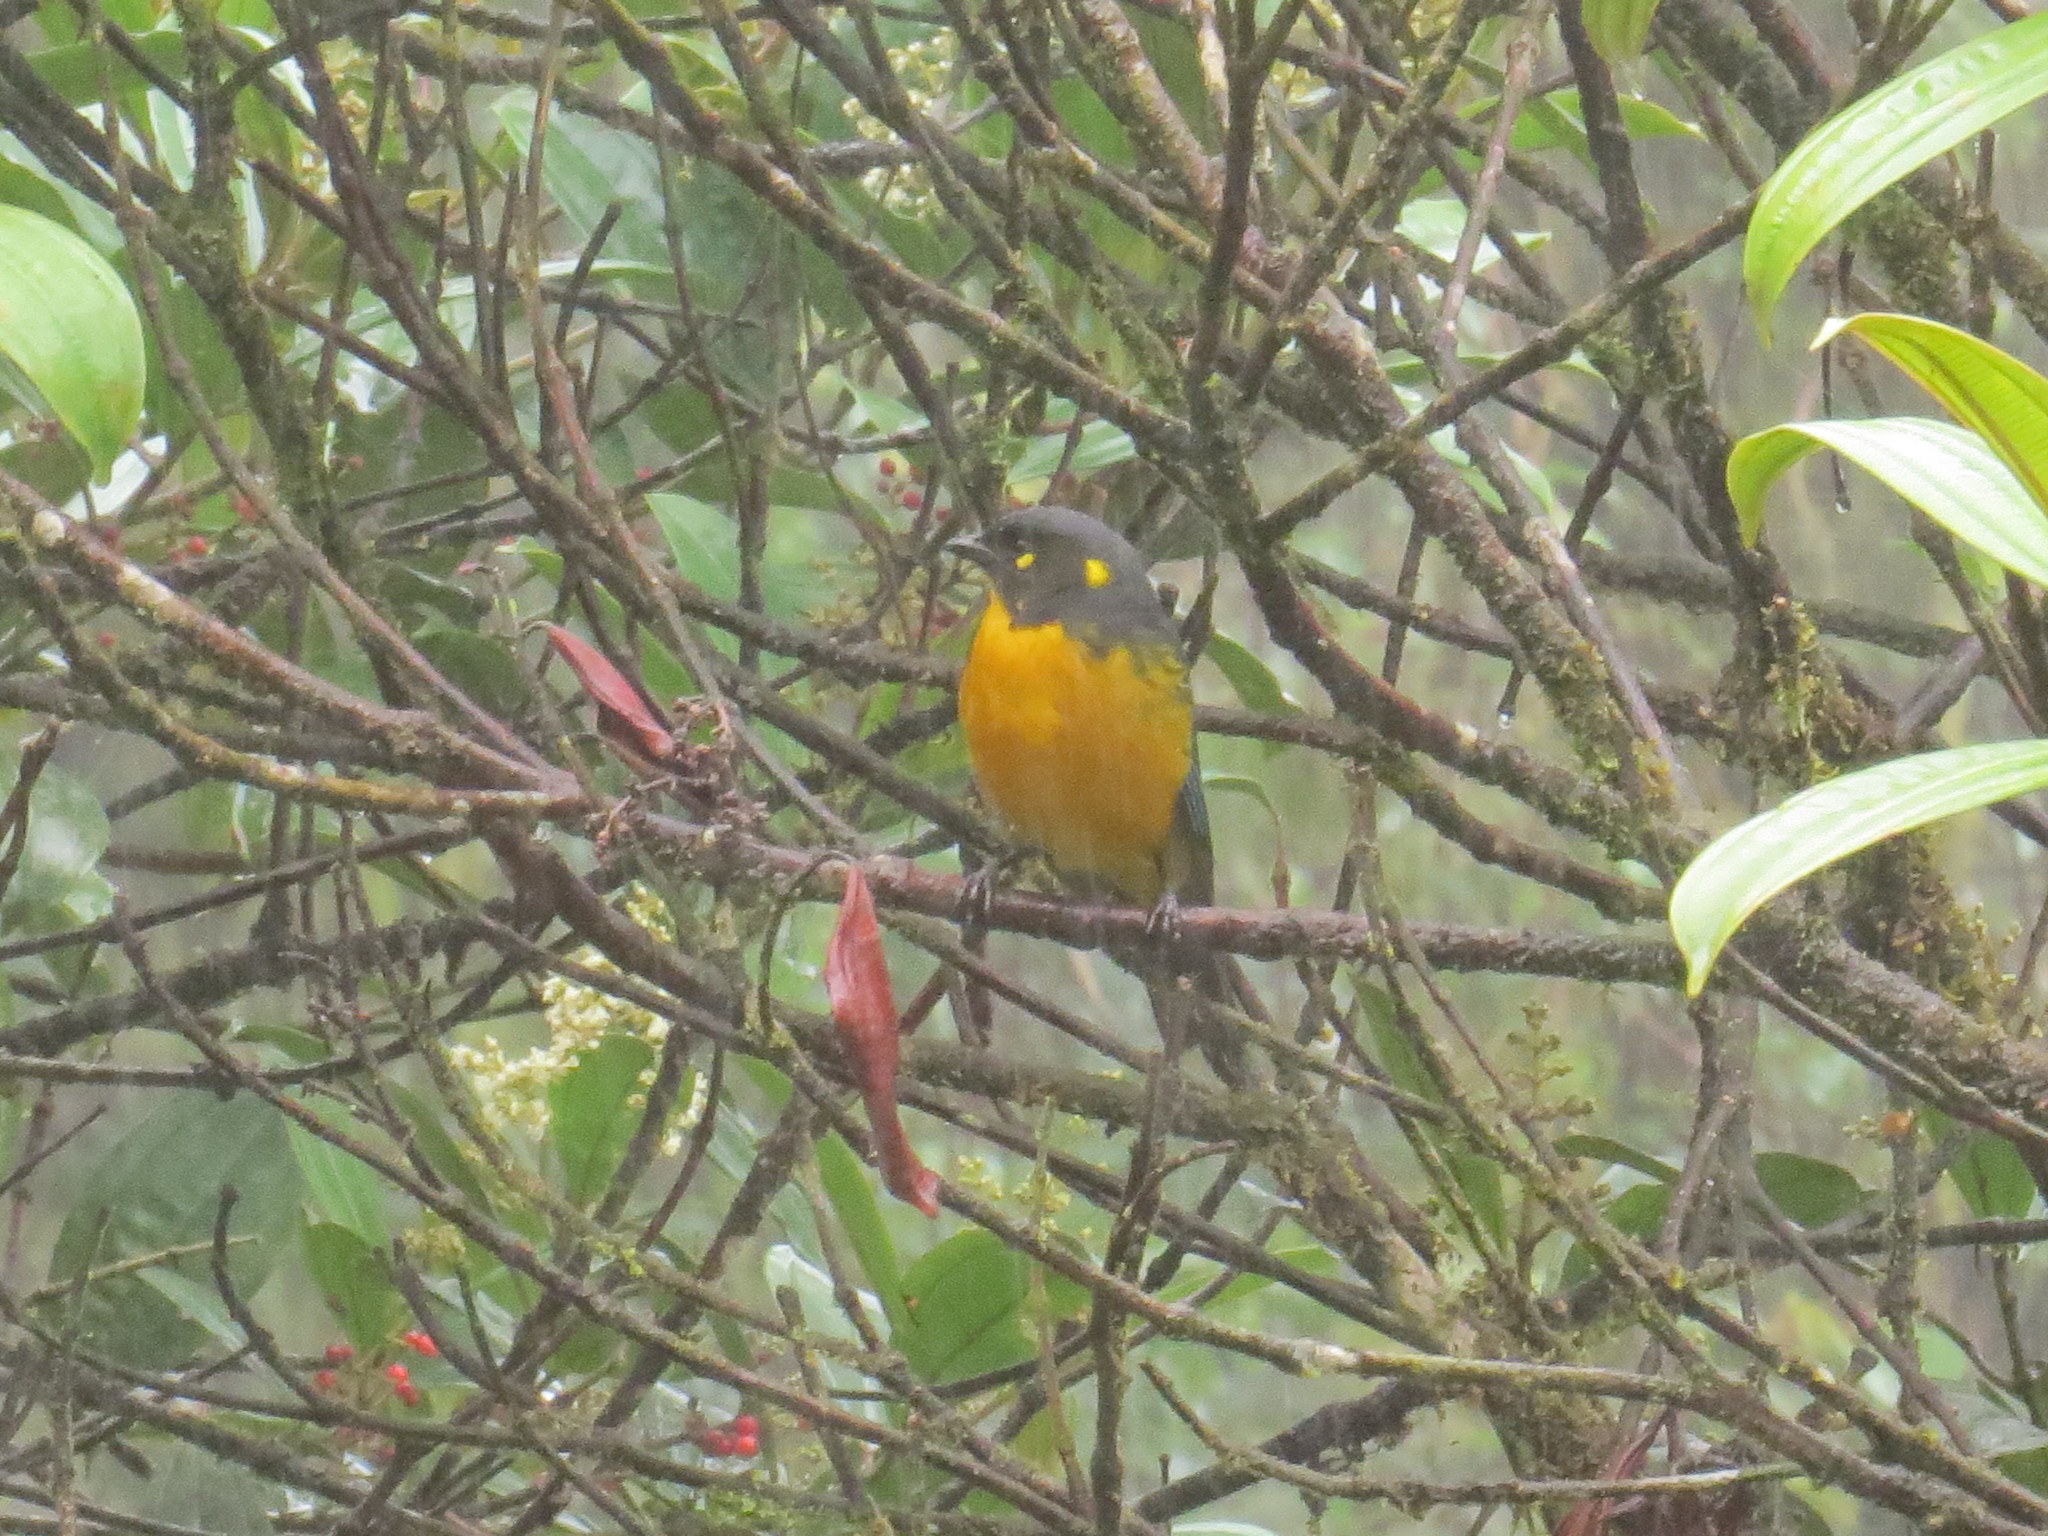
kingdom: Animalia
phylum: Chordata
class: Aves
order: Passeriformes
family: Thraupidae
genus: Anisognathus
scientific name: Anisognathus lacrymosus
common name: Lacrimose mountain-tanager
